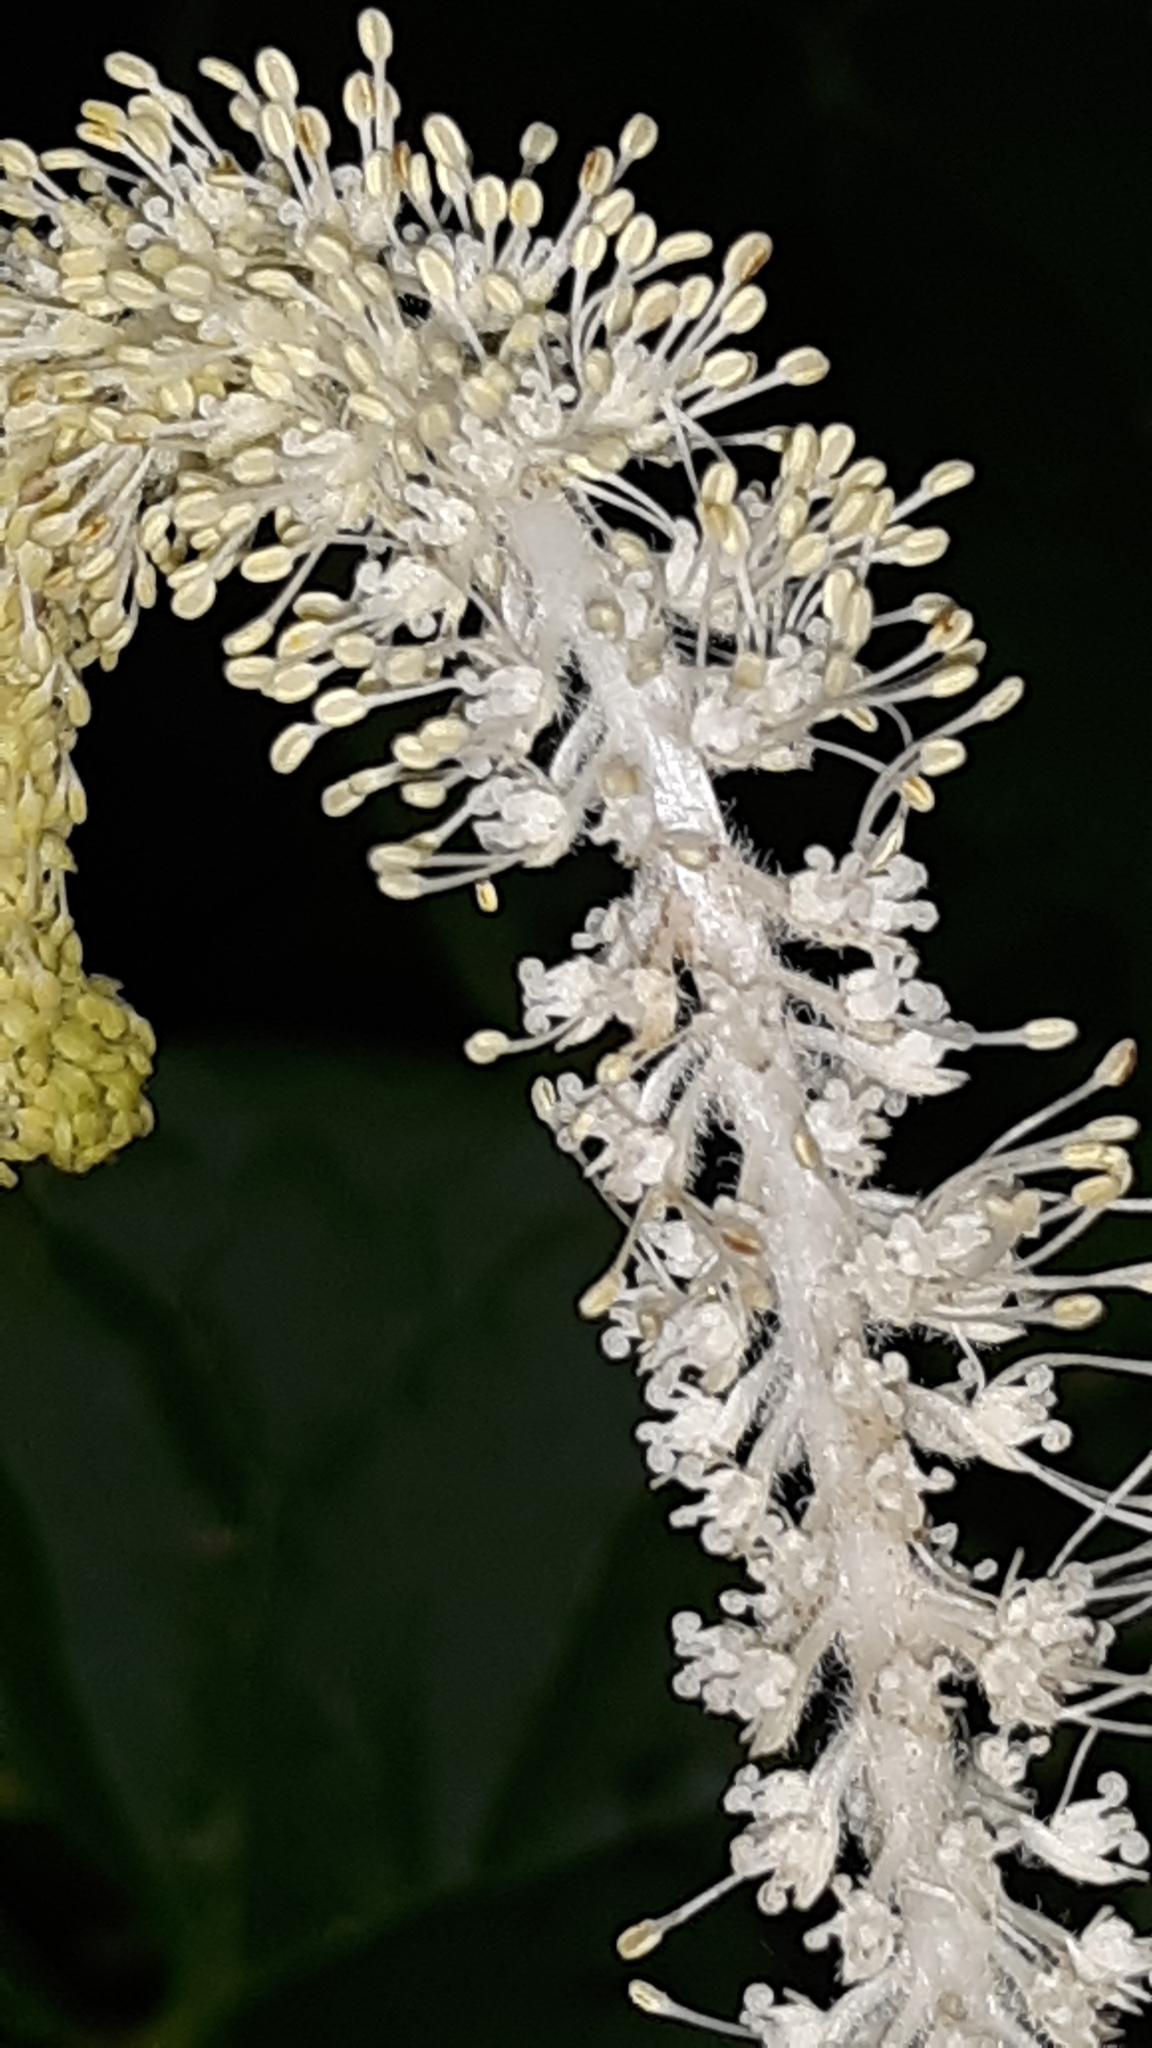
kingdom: Plantae
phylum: Tracheophyta
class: Magnoliopsida
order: Piperales
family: Saururaceae
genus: Saururus
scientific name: Saururus cernuus
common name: Lizard's-tail
